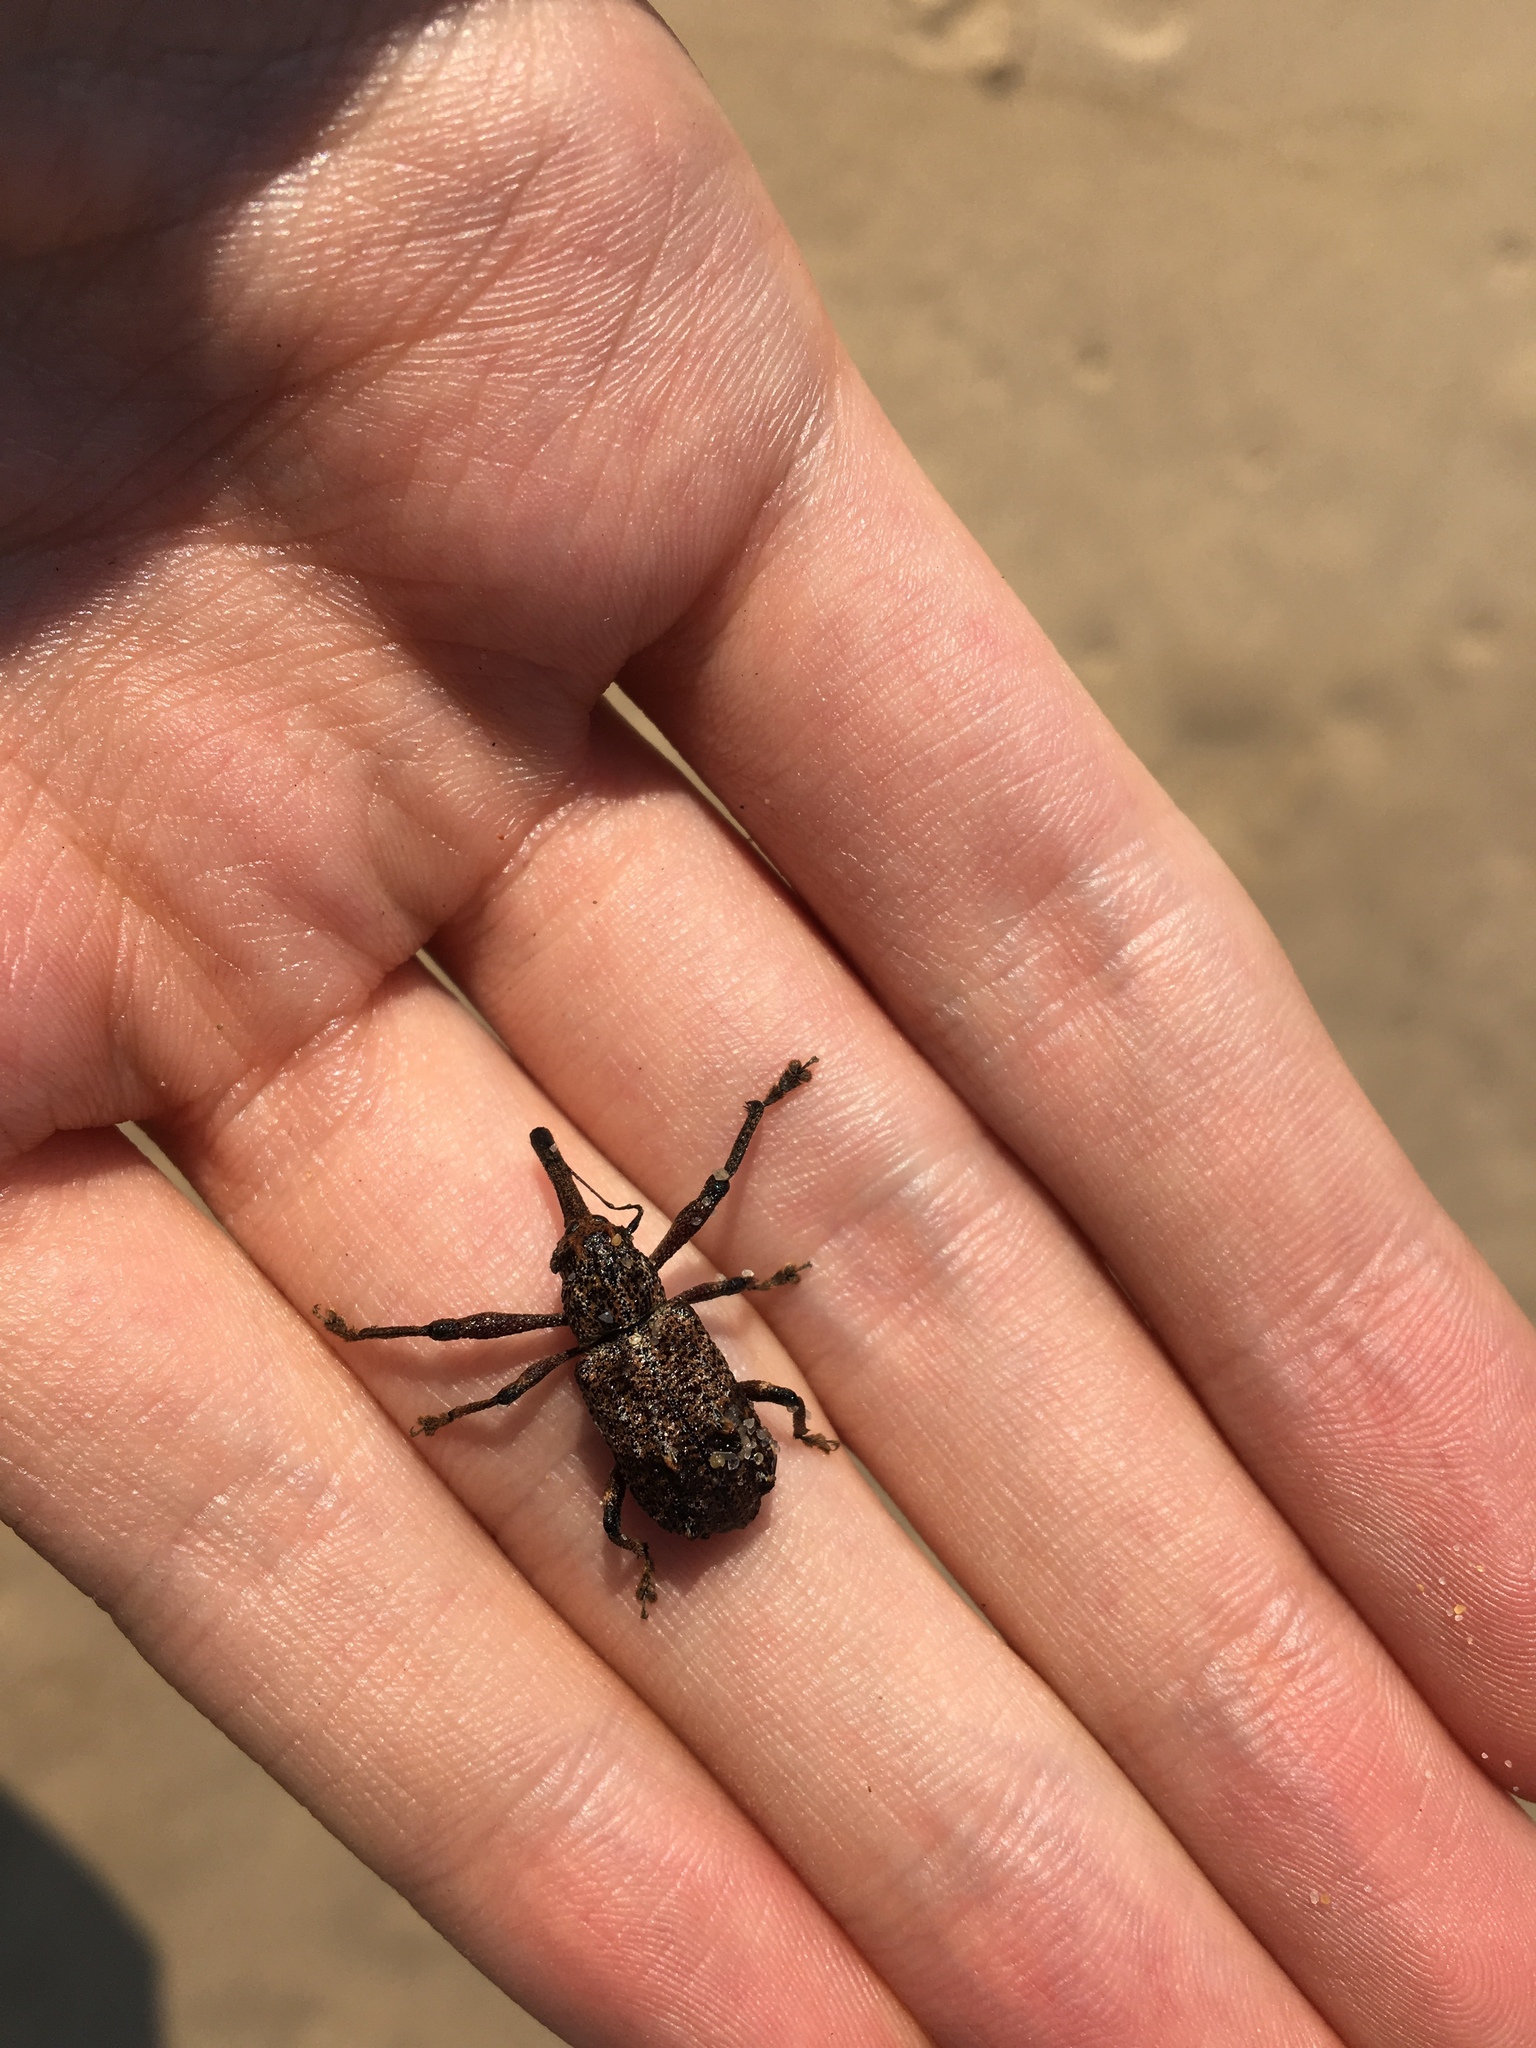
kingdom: Animalia
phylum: Arthropoda
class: Insecta
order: Coleoptera
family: Curculionidae
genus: Orthorhinus
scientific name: Orthorhinus cylindrirostris
